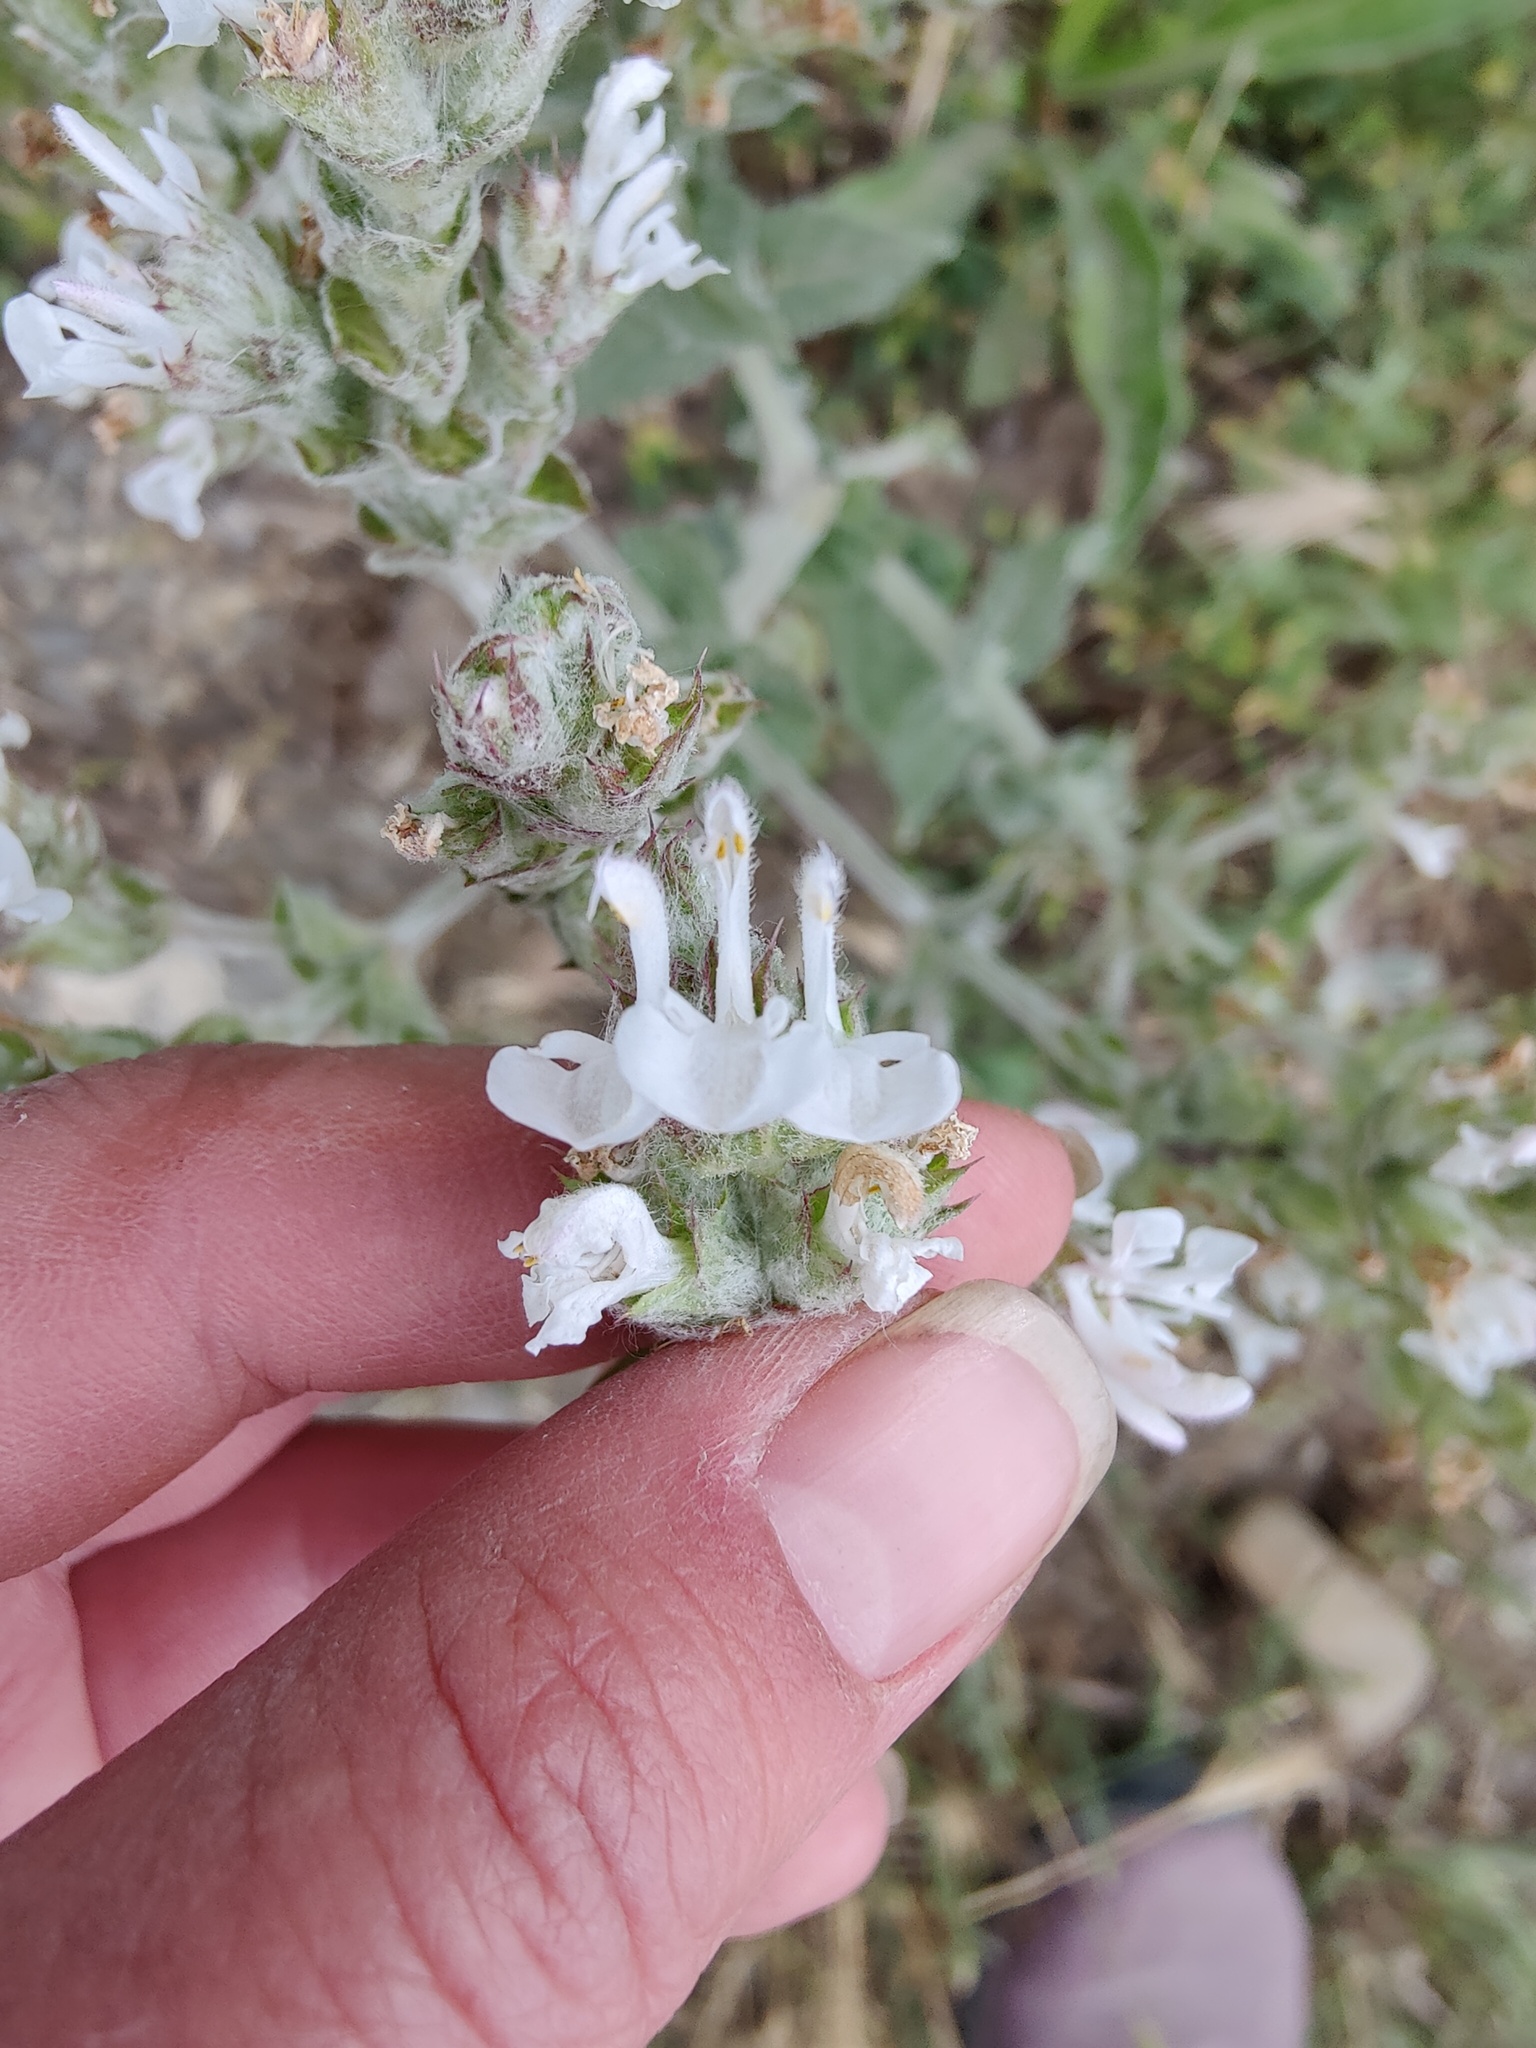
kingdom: Plantae
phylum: Tracheophyta
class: Magnoliopsida
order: Lamiales
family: Lamiaceae
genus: Salvia
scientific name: Salvia aethiopis
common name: Mediterranean sage
